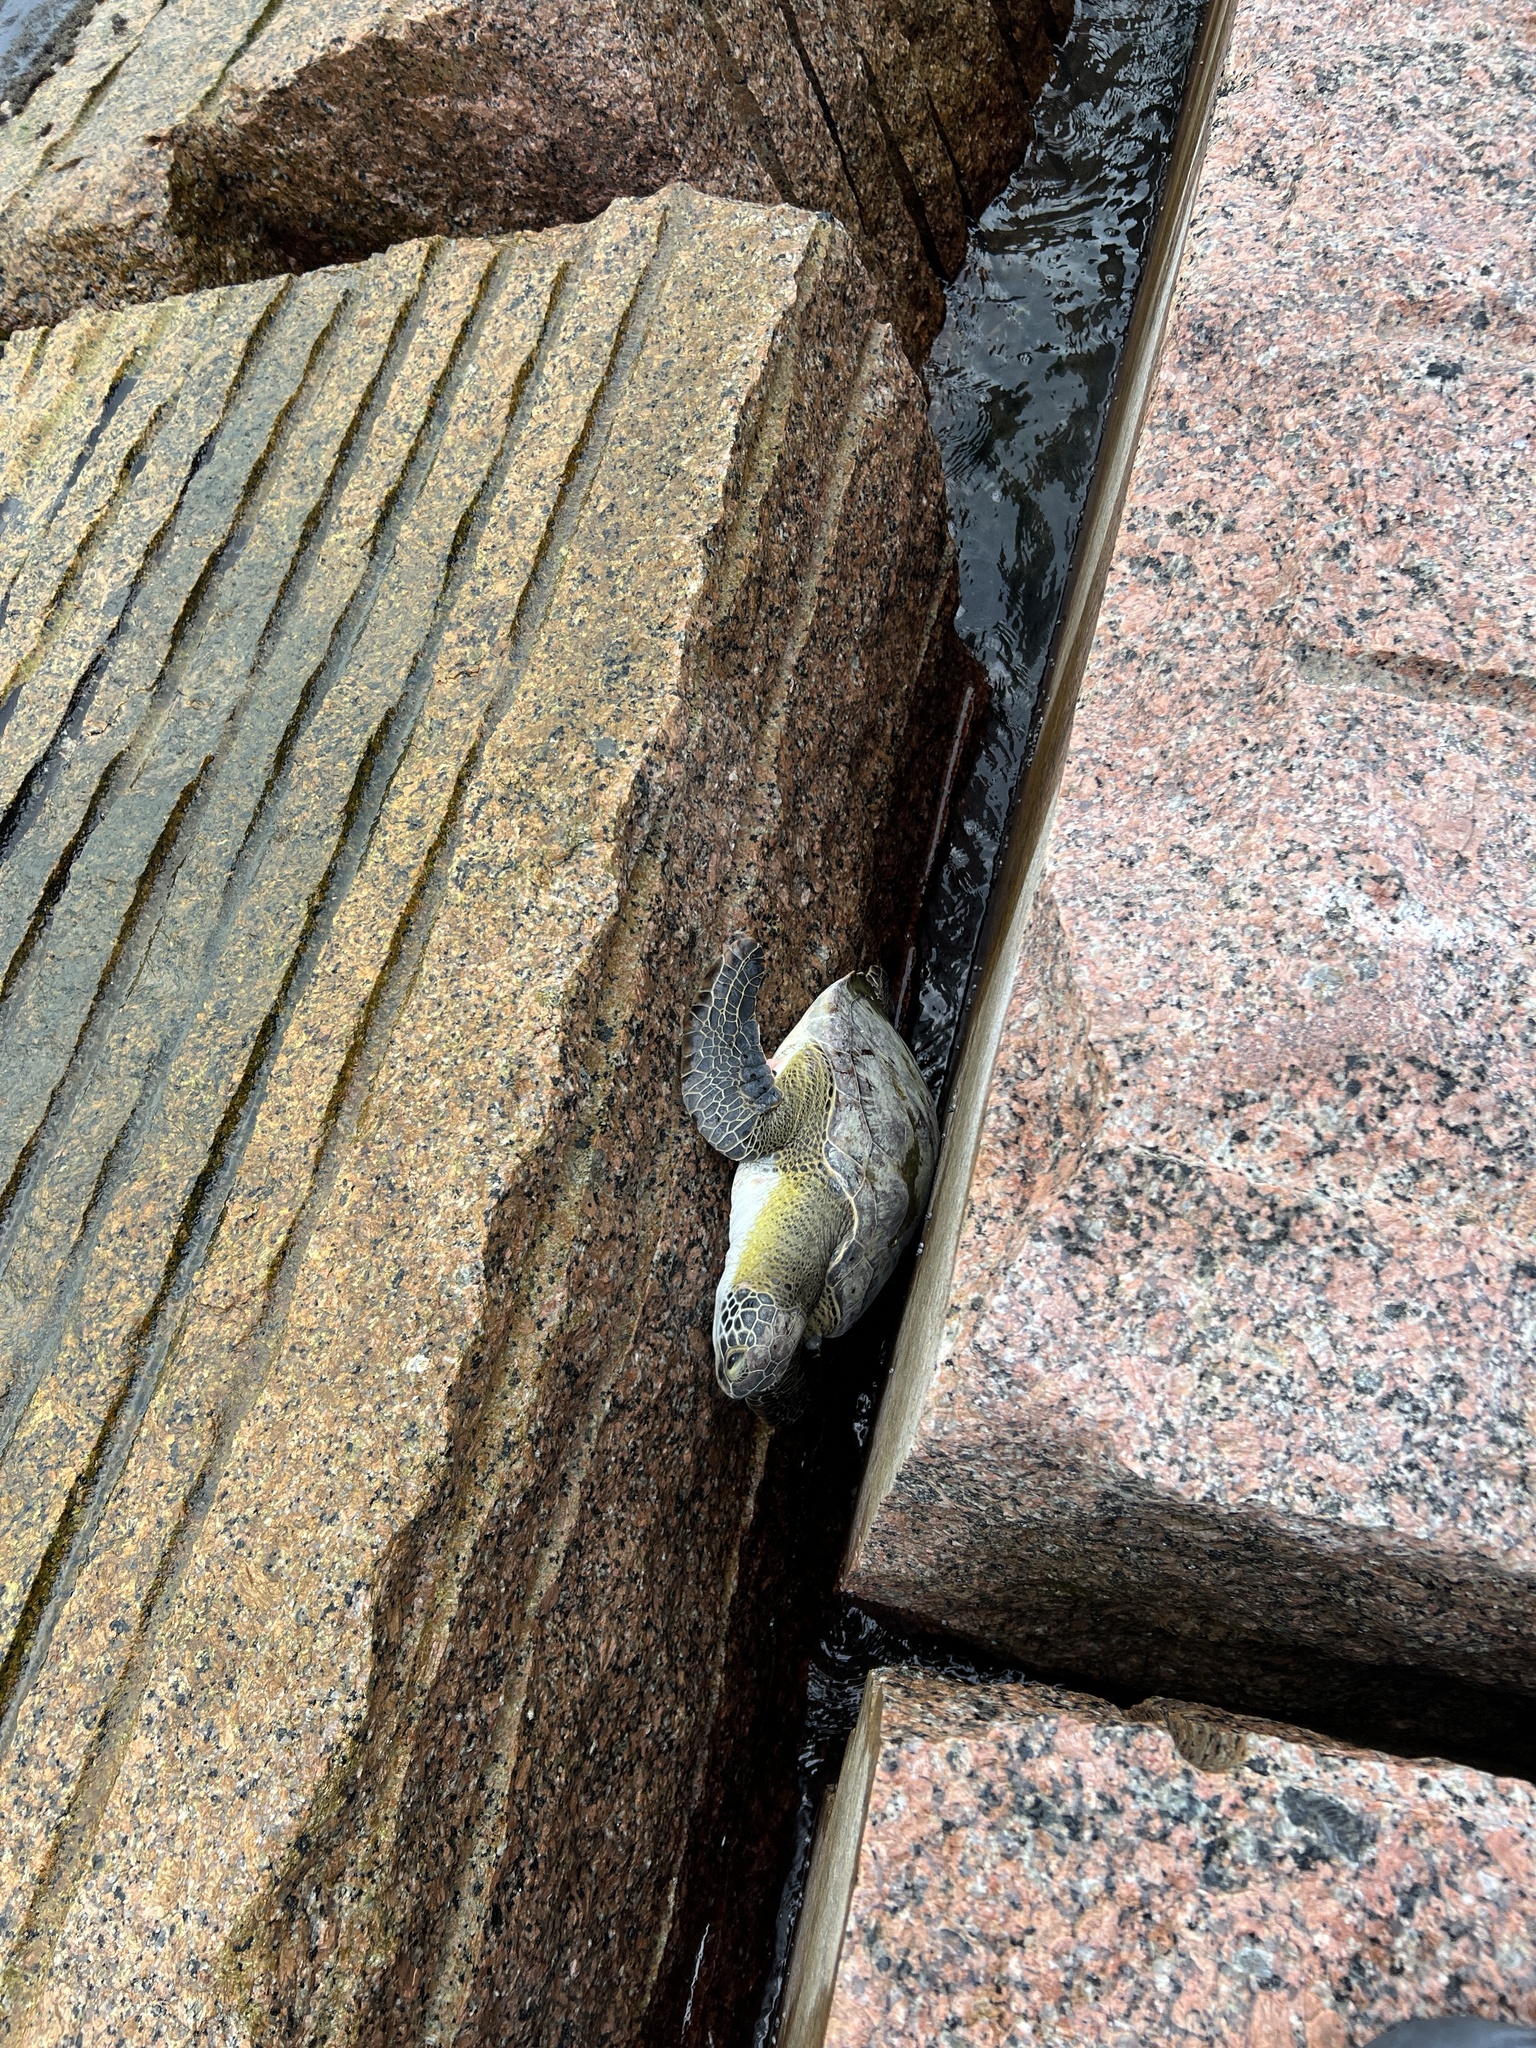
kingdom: Animalia
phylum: Chordata
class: Testudines
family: Cheloniidae
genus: Chelonia
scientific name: Chelonia mydas
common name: Green turtle
